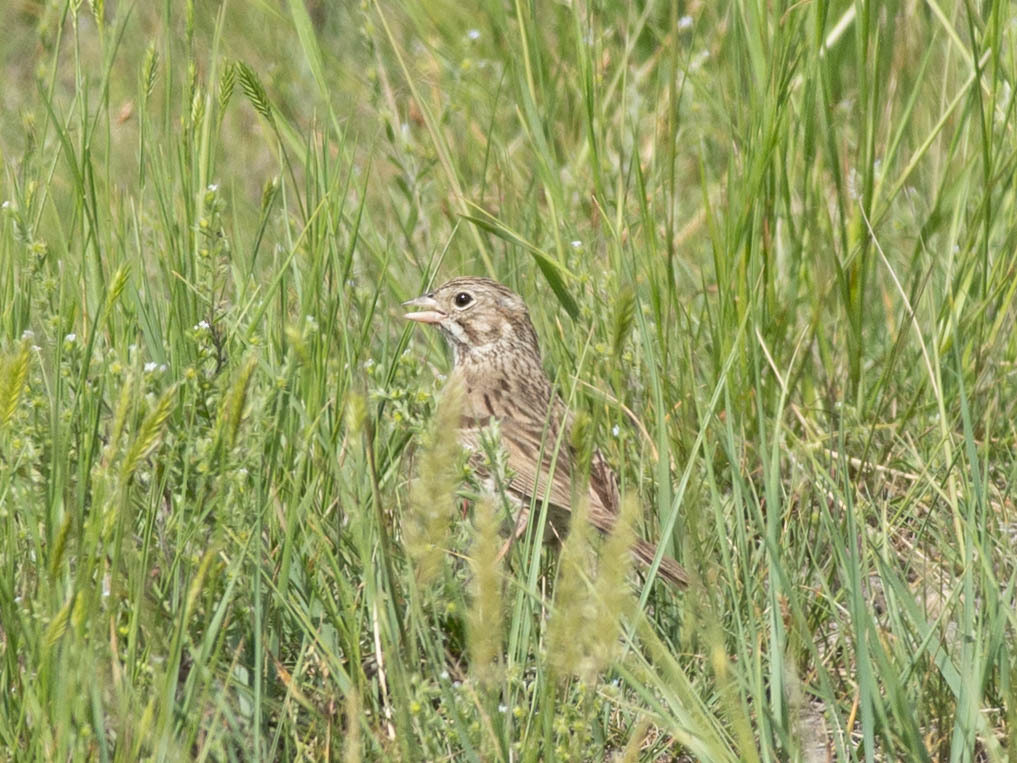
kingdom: Animalia
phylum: Chordata
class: Aves
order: Passeriformes
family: Passerellidae
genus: Pooecetes
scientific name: Pooecetes gramineus
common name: Vesper sparrow
